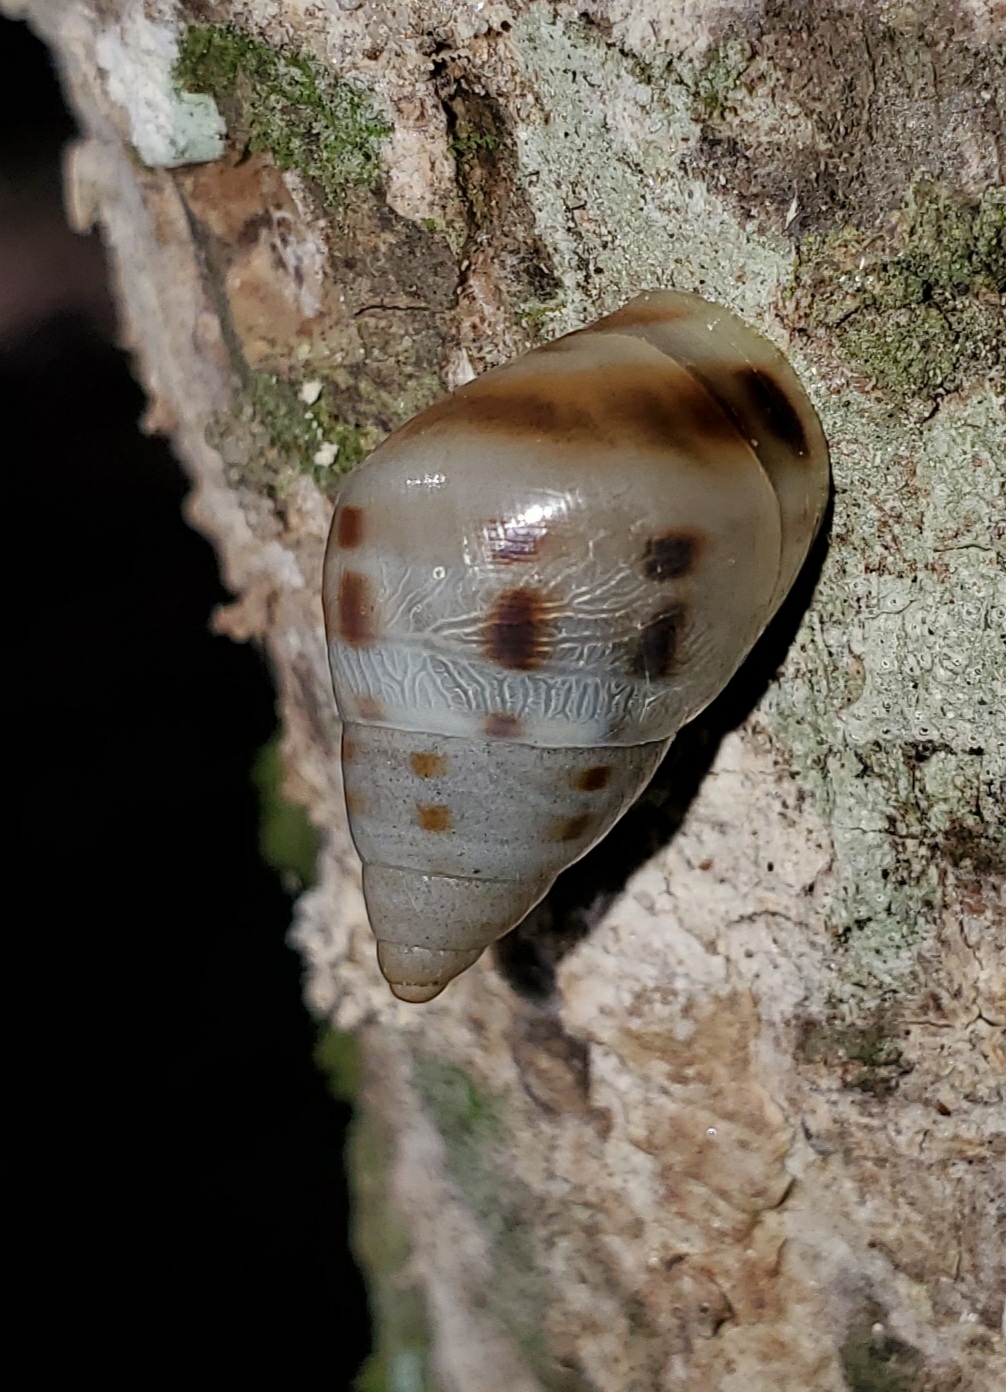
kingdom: Animalia
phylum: Mollusca
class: Gastropoda
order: Stylommatophora
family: Bulimulidae
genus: Drymaeus
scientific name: Drymaeus dormani
